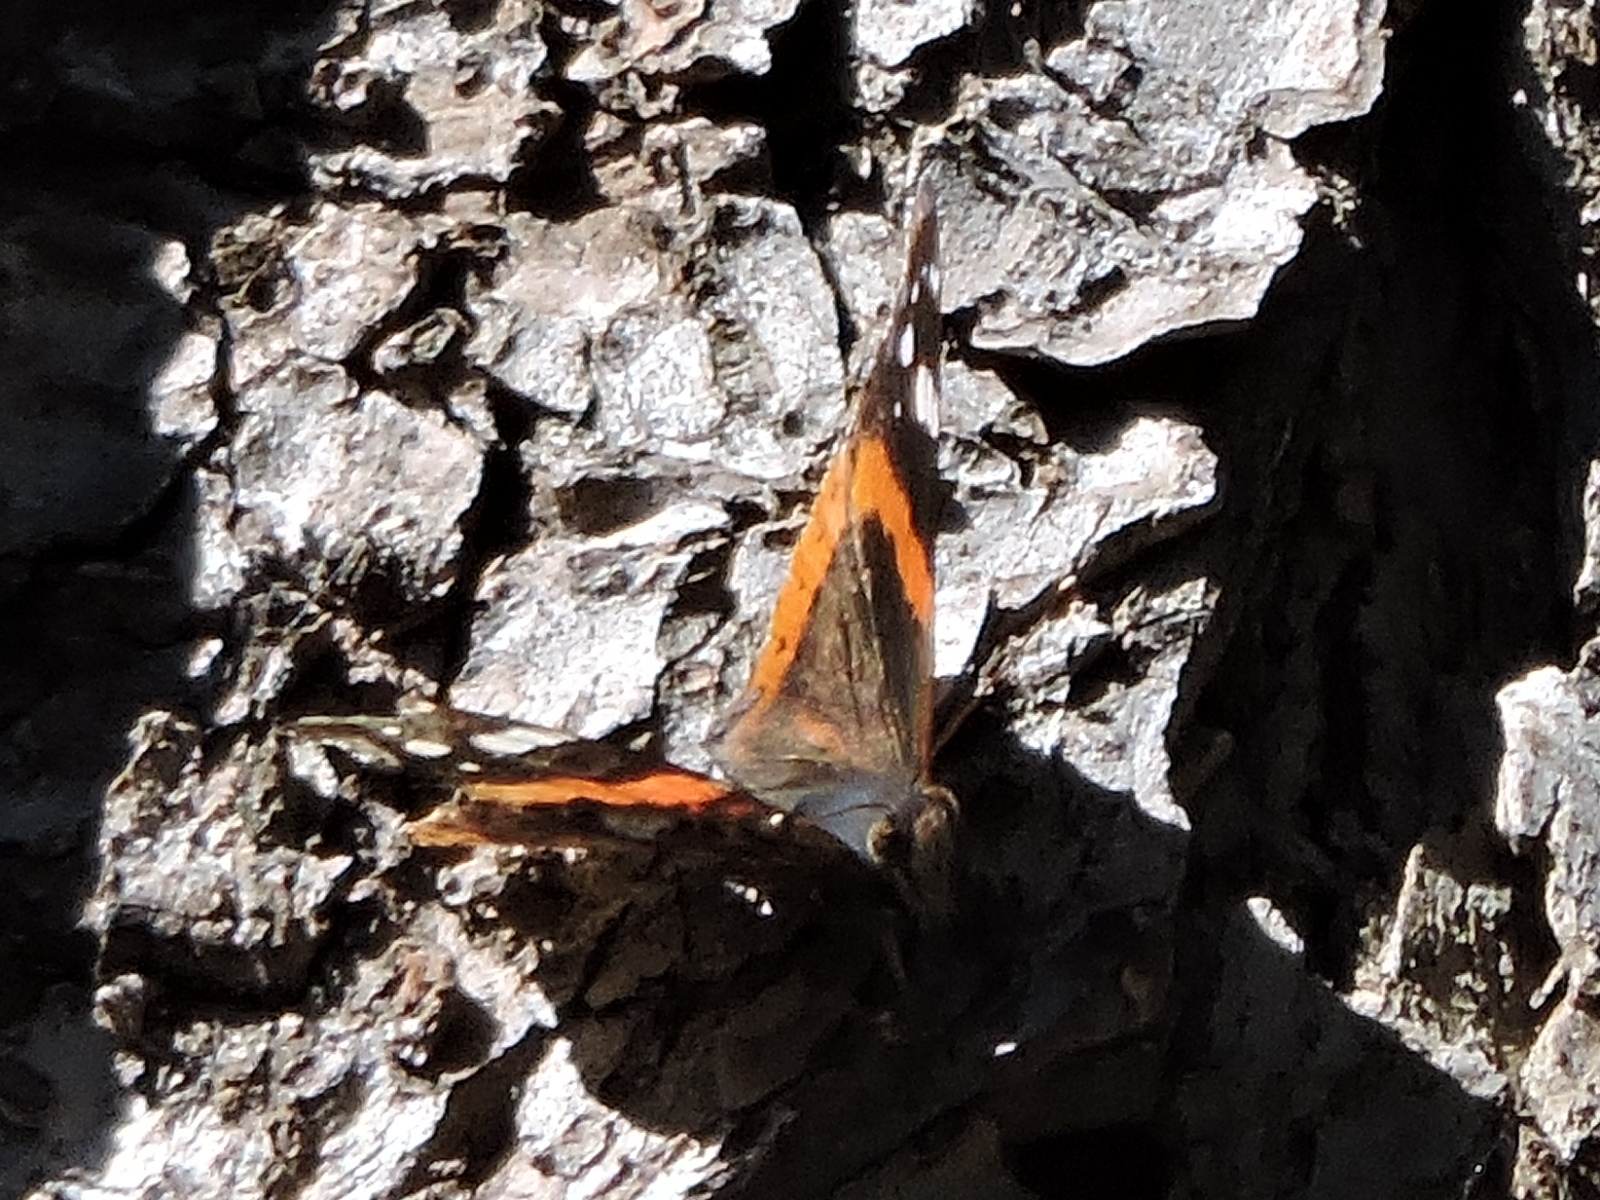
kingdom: Animalia
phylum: Arthropoda
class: Insecta
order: Lepidoptera
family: Nymphalidae
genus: Vanessa
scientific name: Vanessa atalanta
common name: Red admiral
